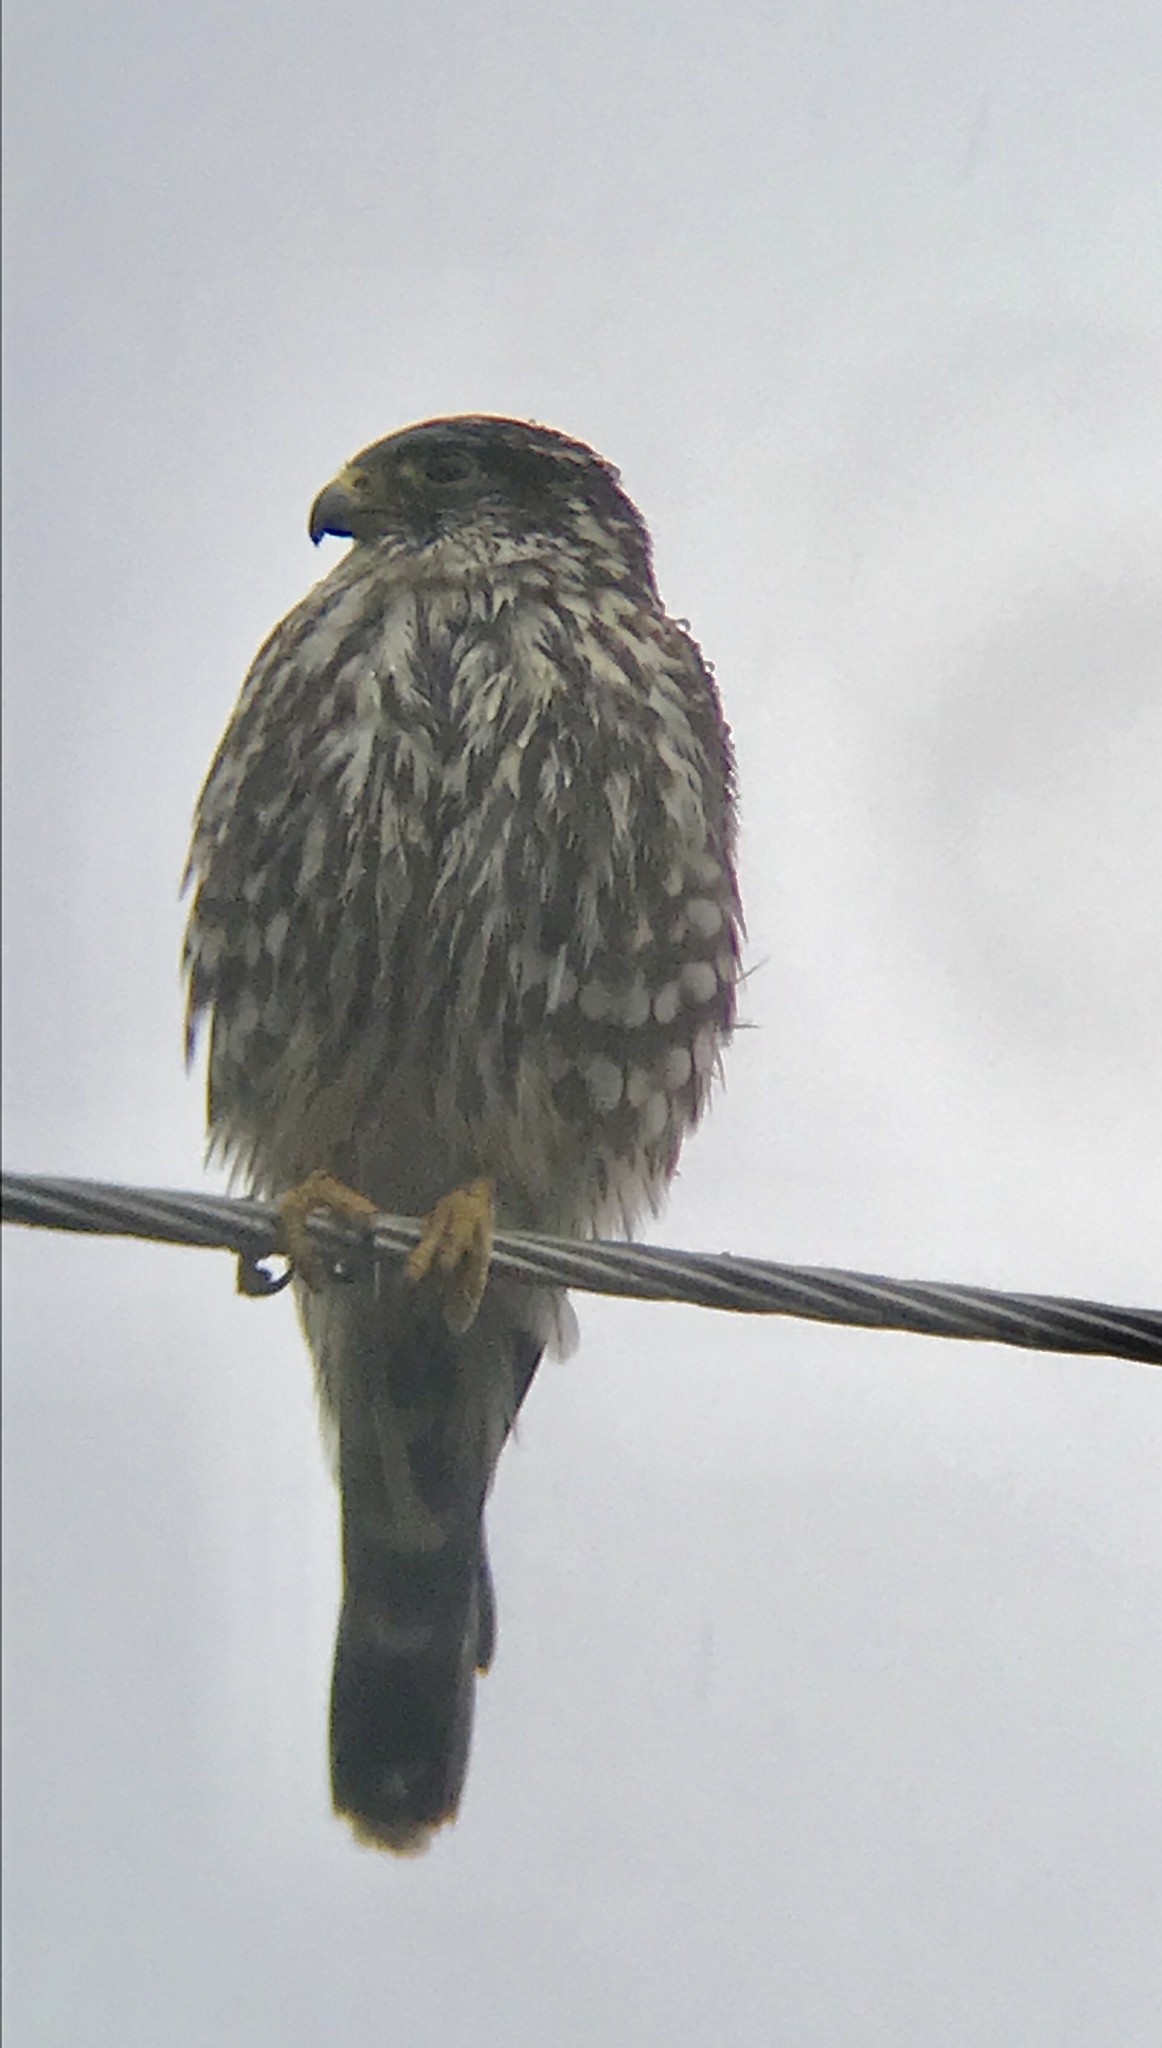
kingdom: Animalia
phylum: Chordata
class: Aves
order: Falconiformes
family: Falconidae
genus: Falco
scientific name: Falco columbarius
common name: Merlin
